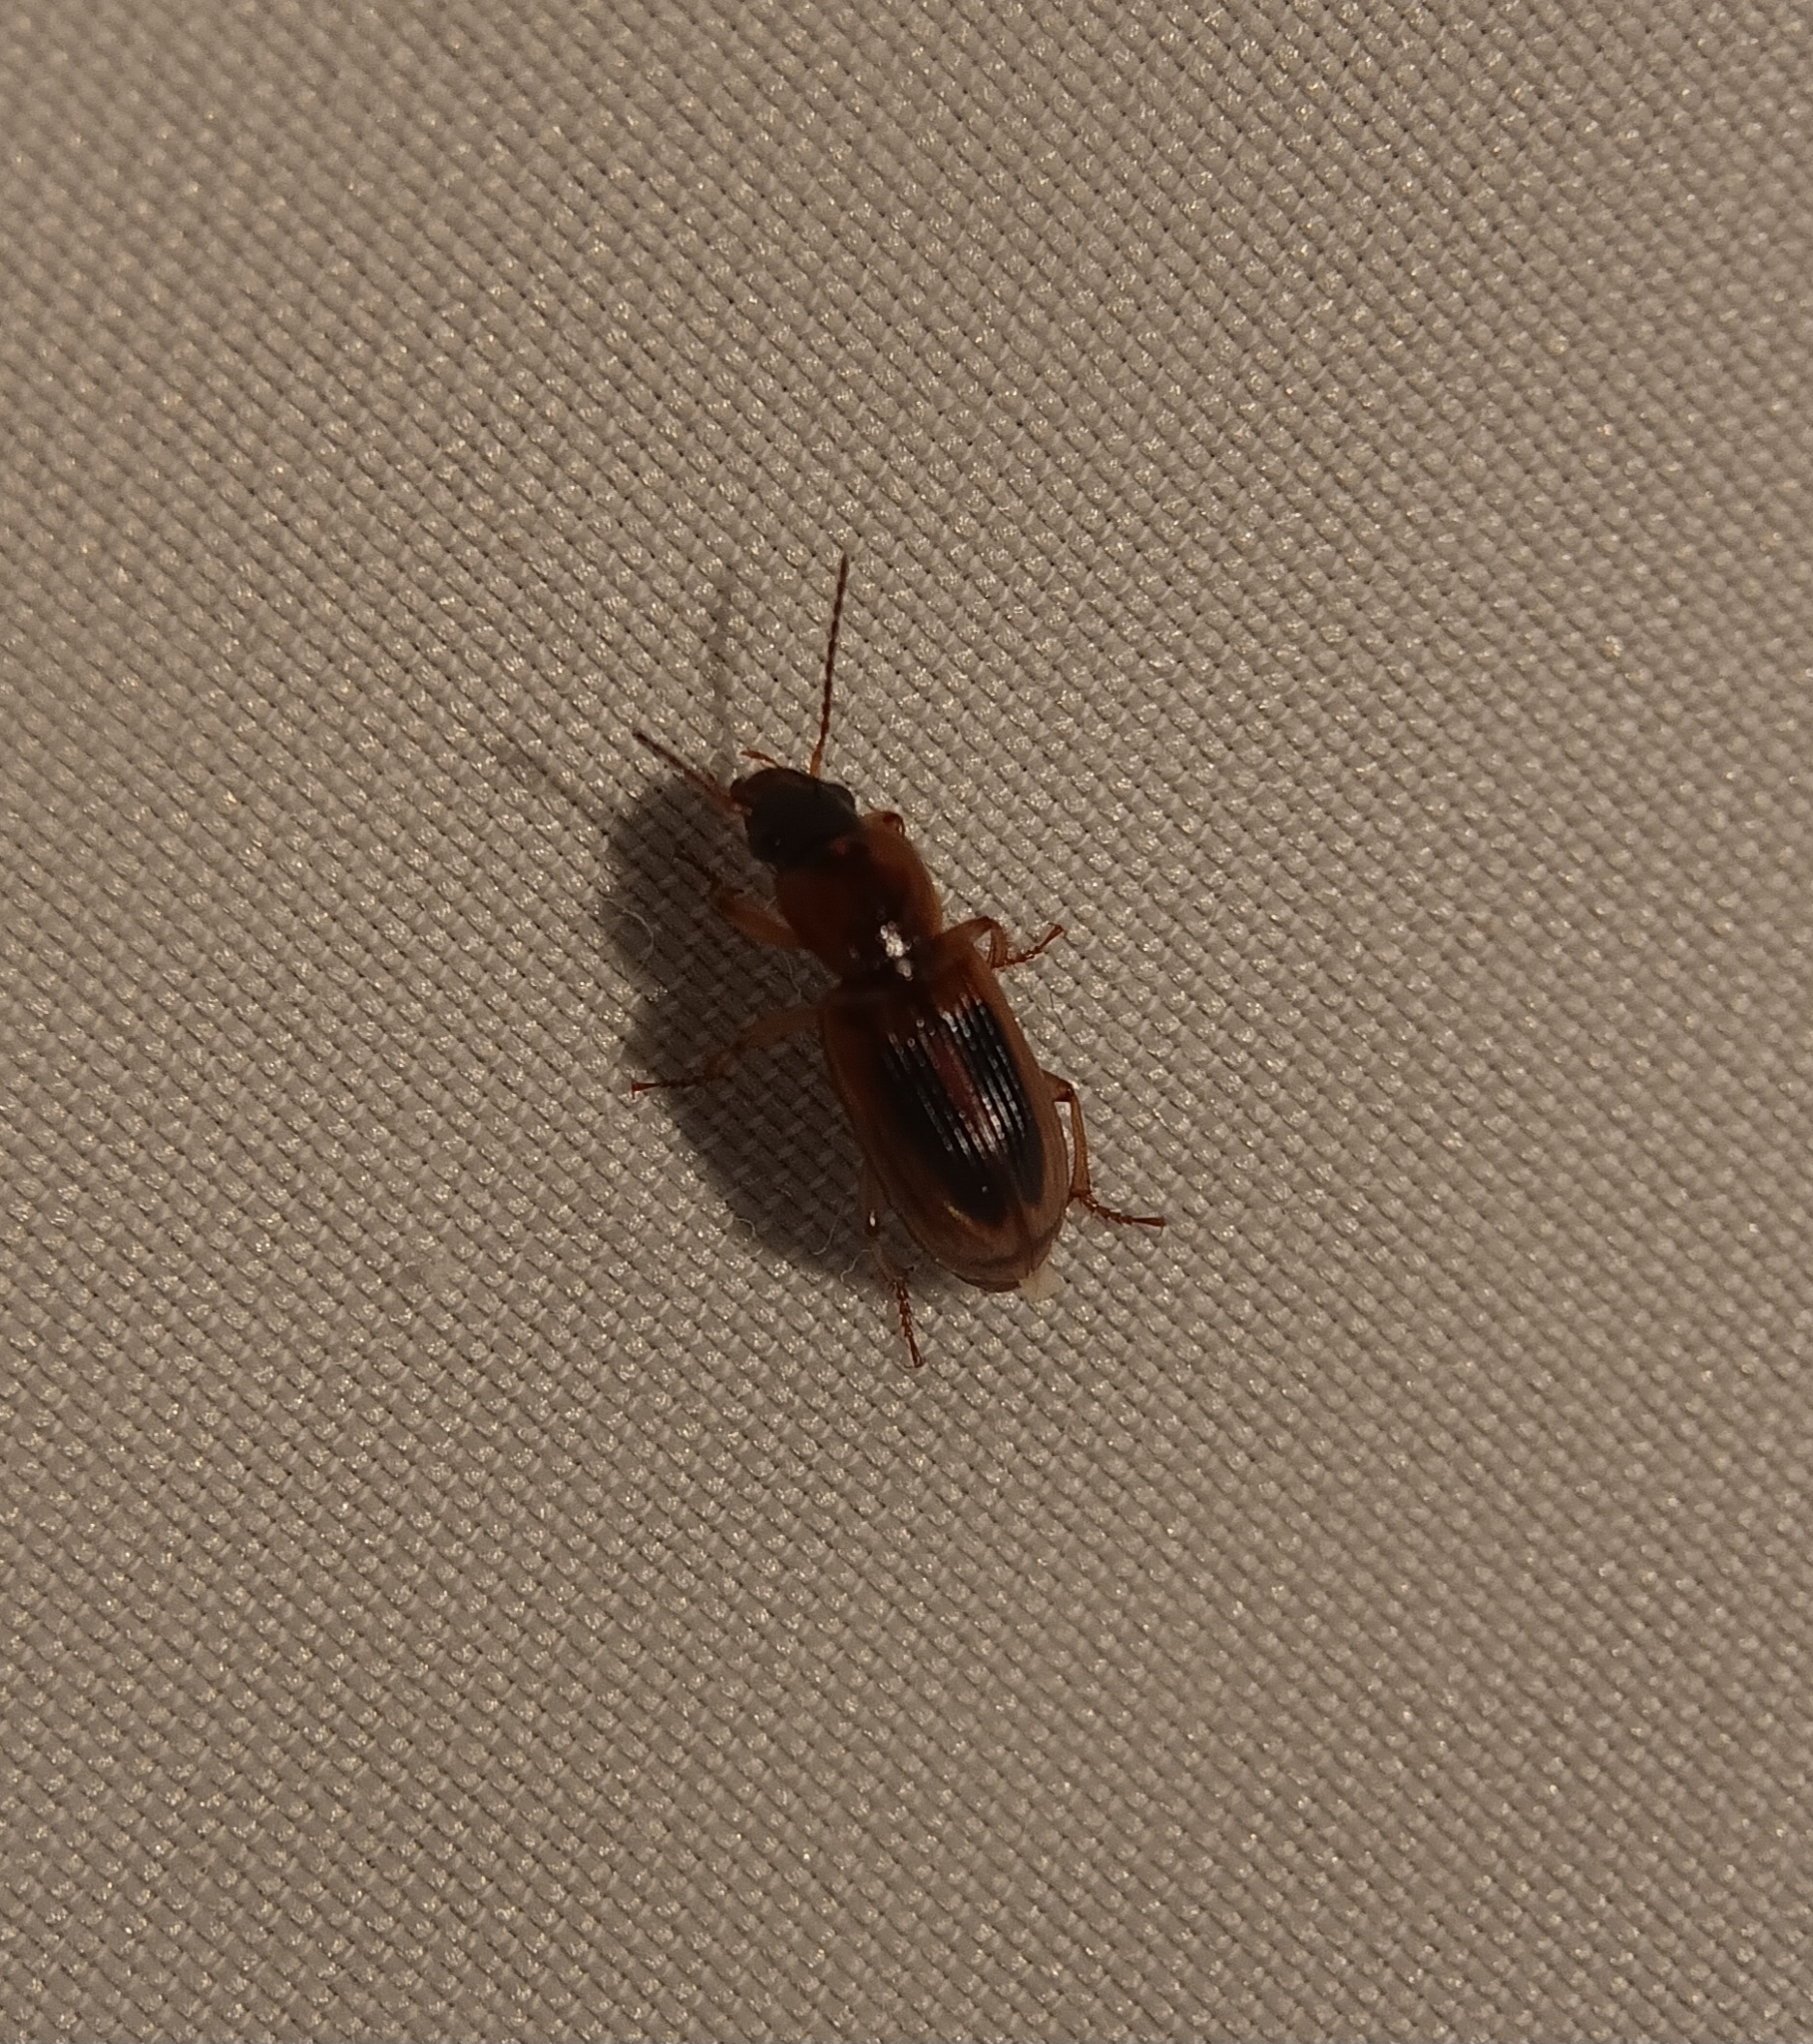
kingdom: Animalia
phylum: Arthropoda
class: Insecta
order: Coleoptera
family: Carabidae
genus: Stenolophus
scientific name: Stenolophus lecontei
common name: Leconte's seedcorn beetle
